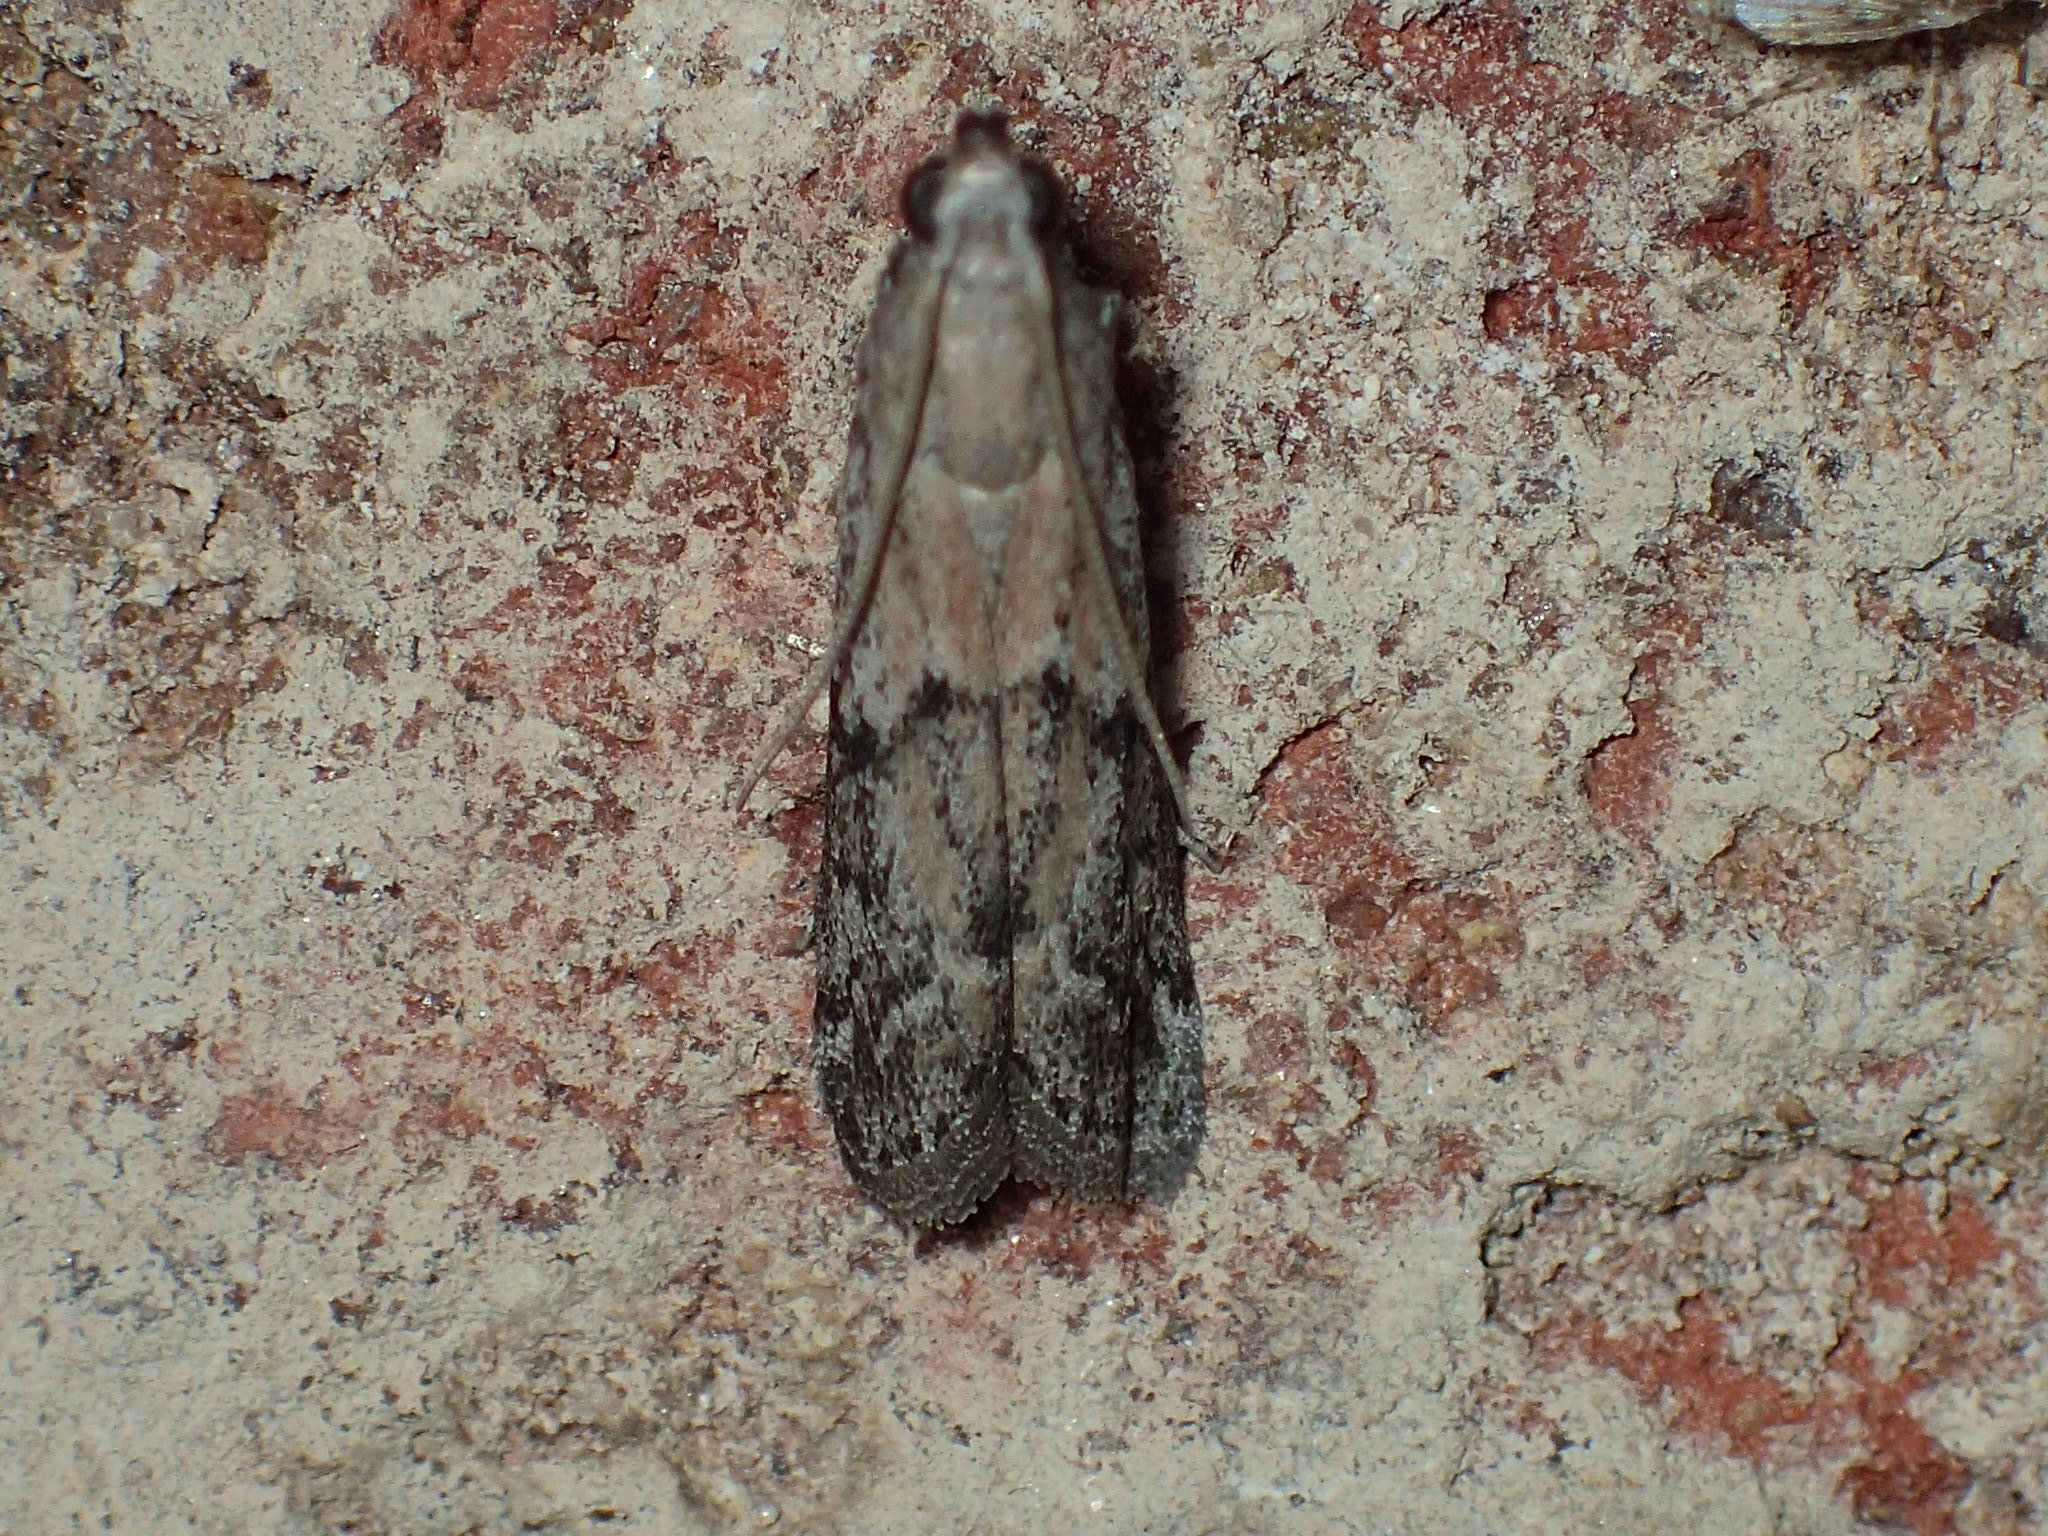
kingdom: Animalia
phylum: Arthropoda
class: Insecta
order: Lepidoptera
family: Pyralidae
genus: Vitula
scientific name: Vitula edmandsii
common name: Dried fruit moth
